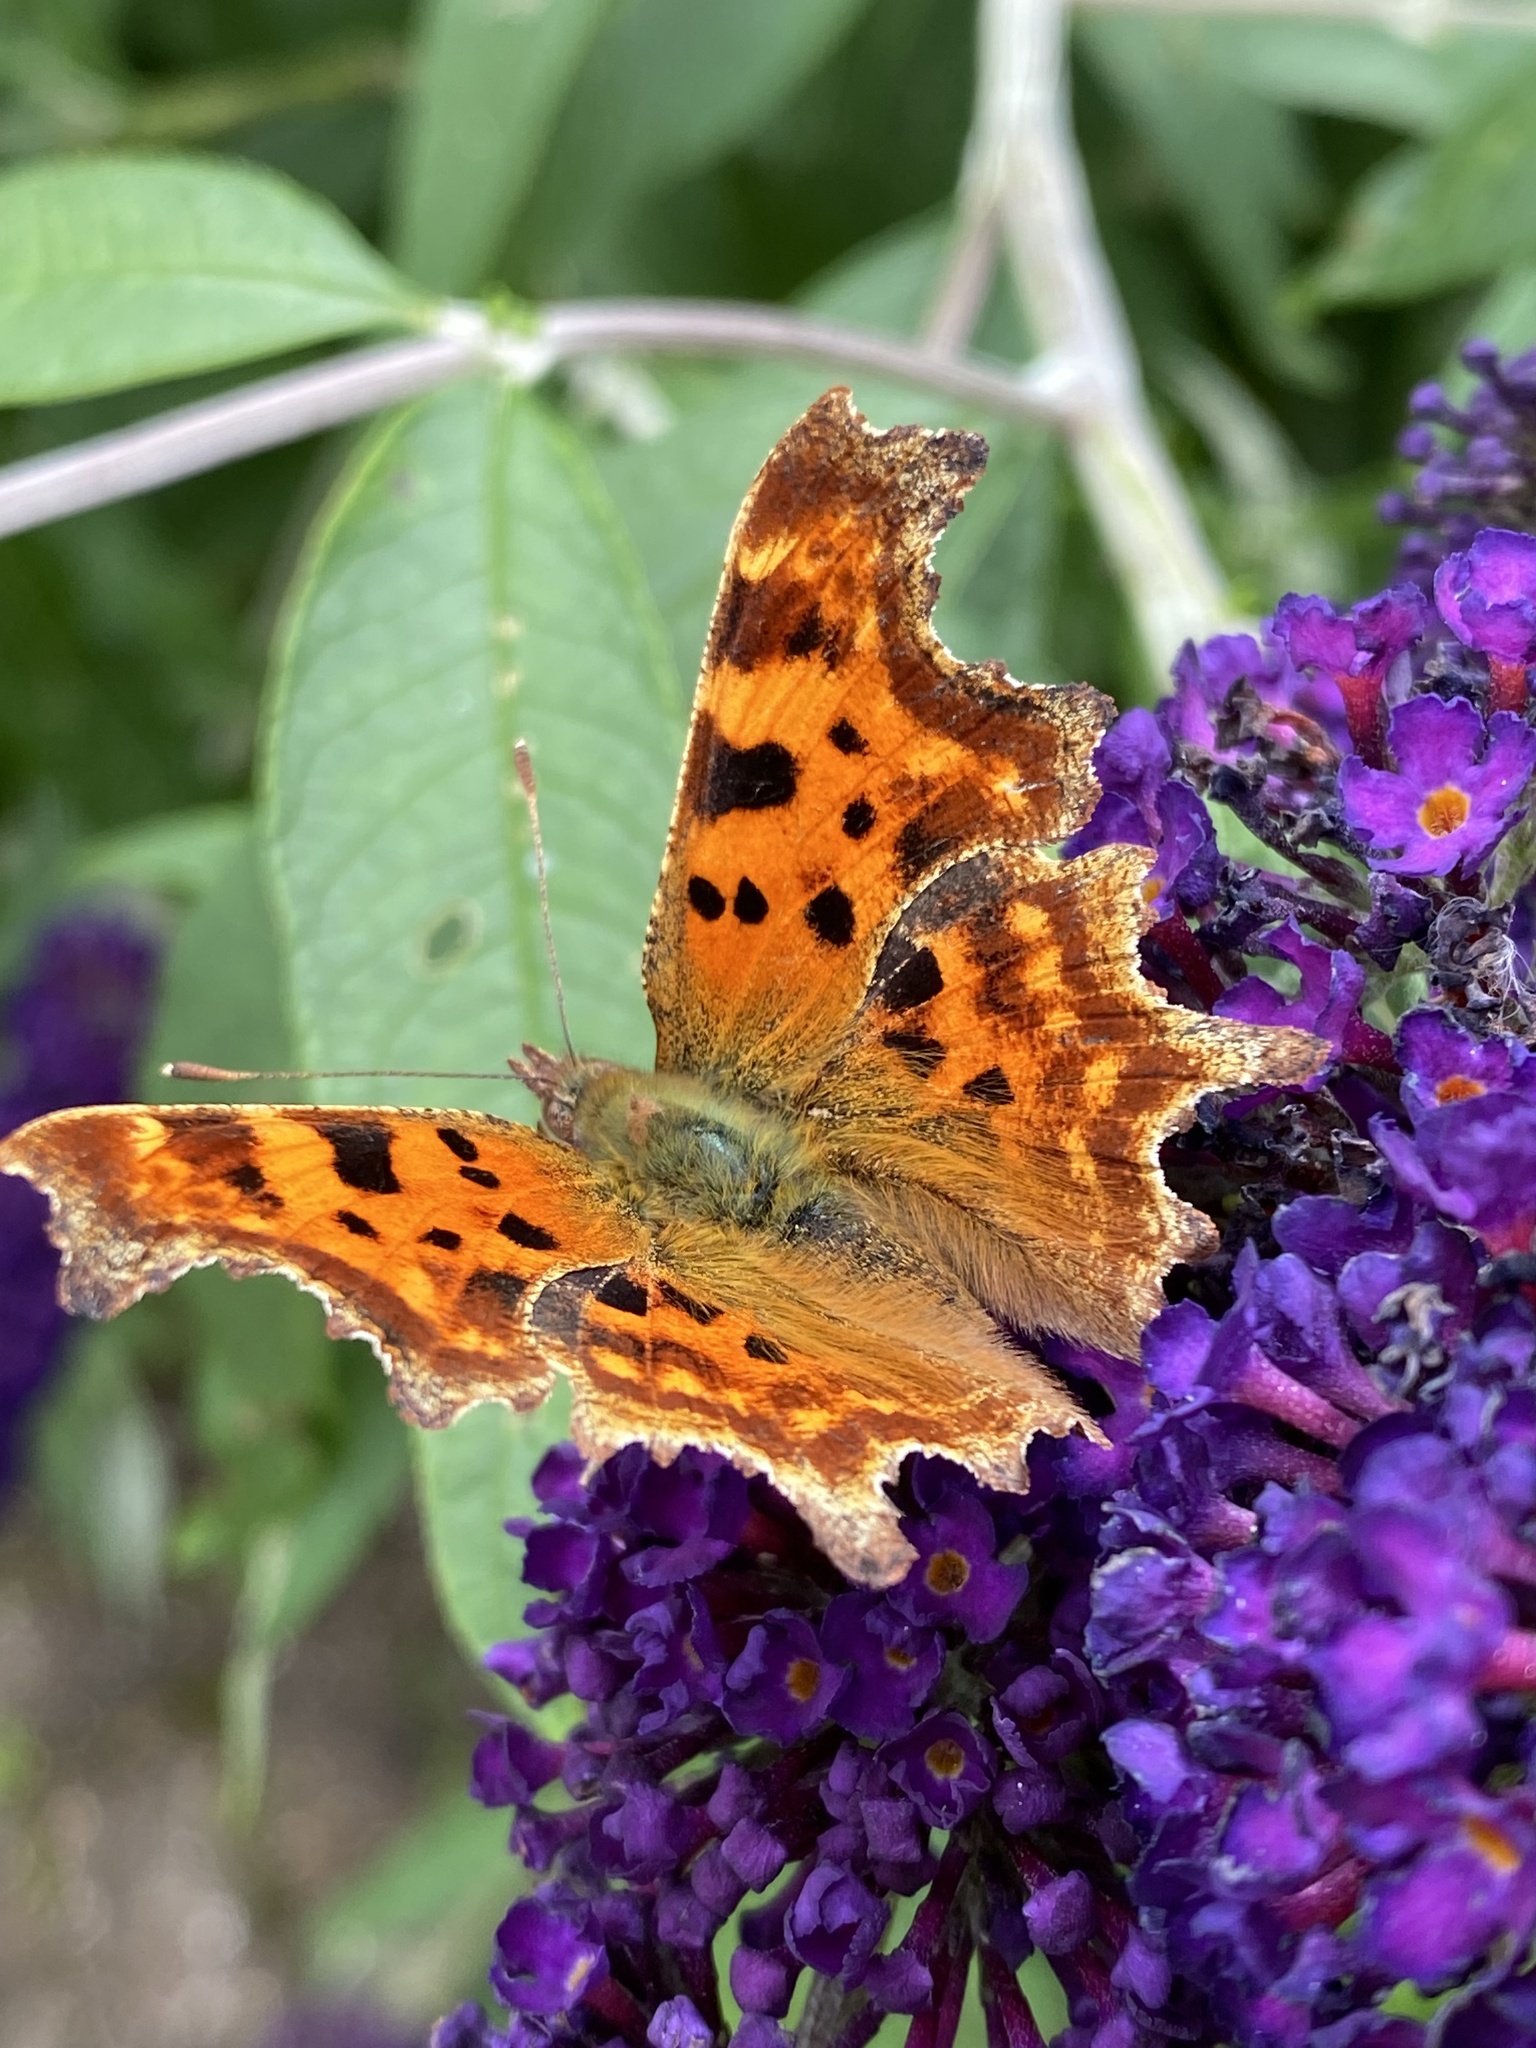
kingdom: Animalia
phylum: Arthropoda
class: Insecta
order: Lepidoptera
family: Nymphalidae
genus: Polygonia
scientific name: Polygonia c-album
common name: Comma
